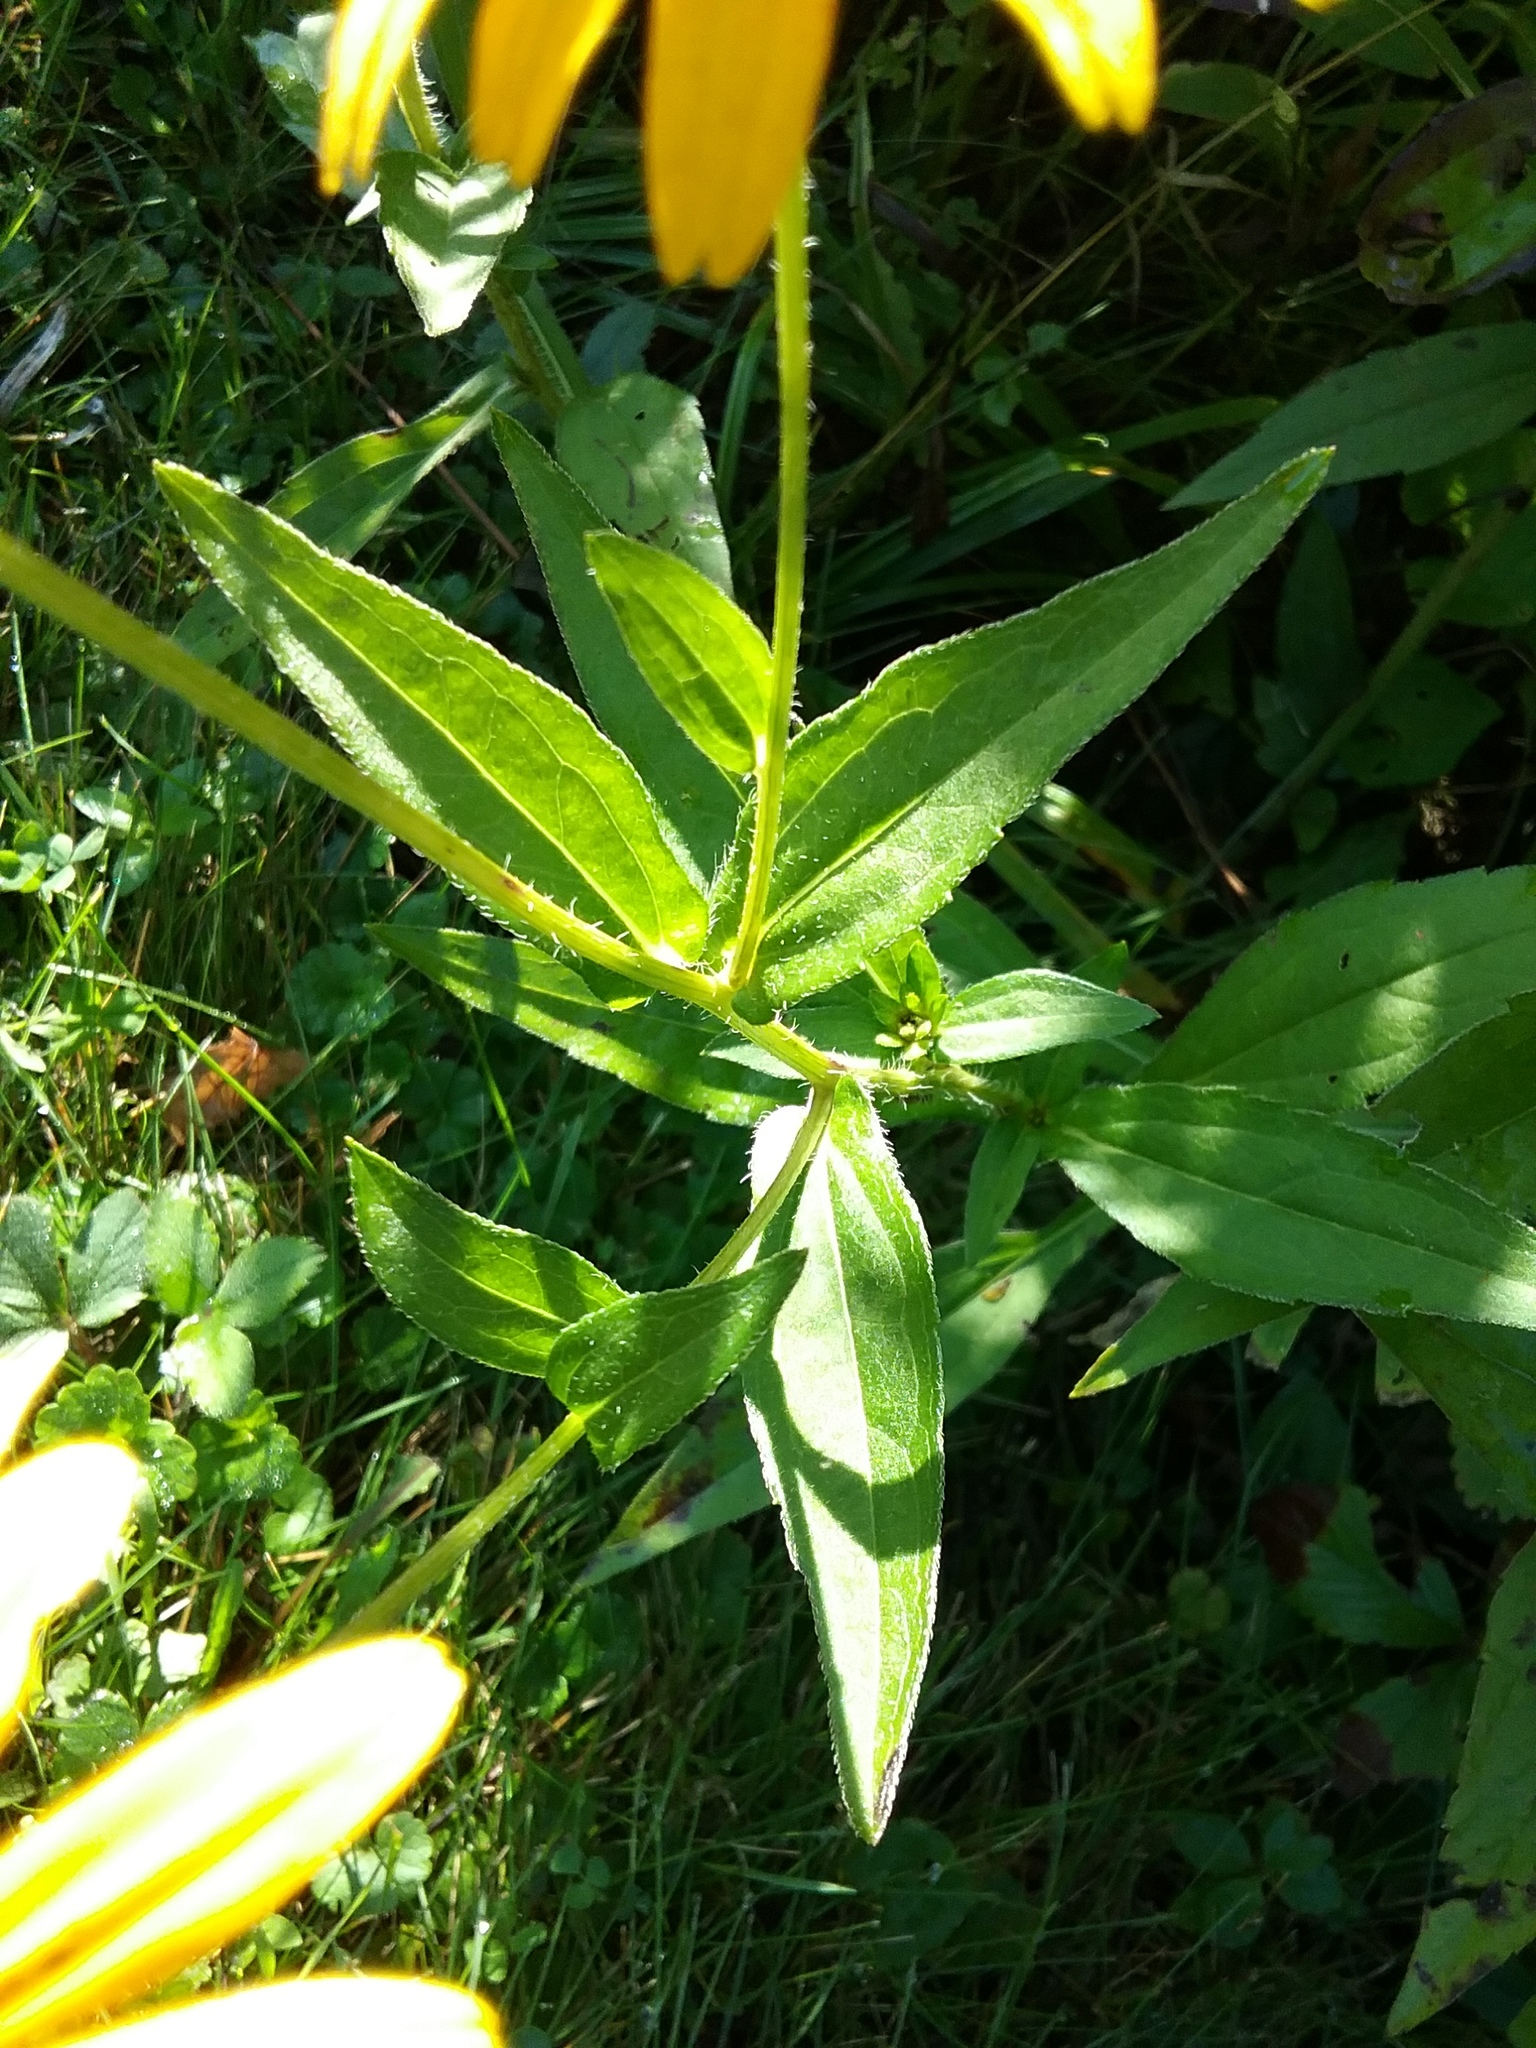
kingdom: Plantae
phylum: Tracheophyta
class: Magnoliopsida
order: Asterales
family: Asteraceae
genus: Rudbeckia
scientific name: Rudbeckia hirta
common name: Black-eyed-susan
